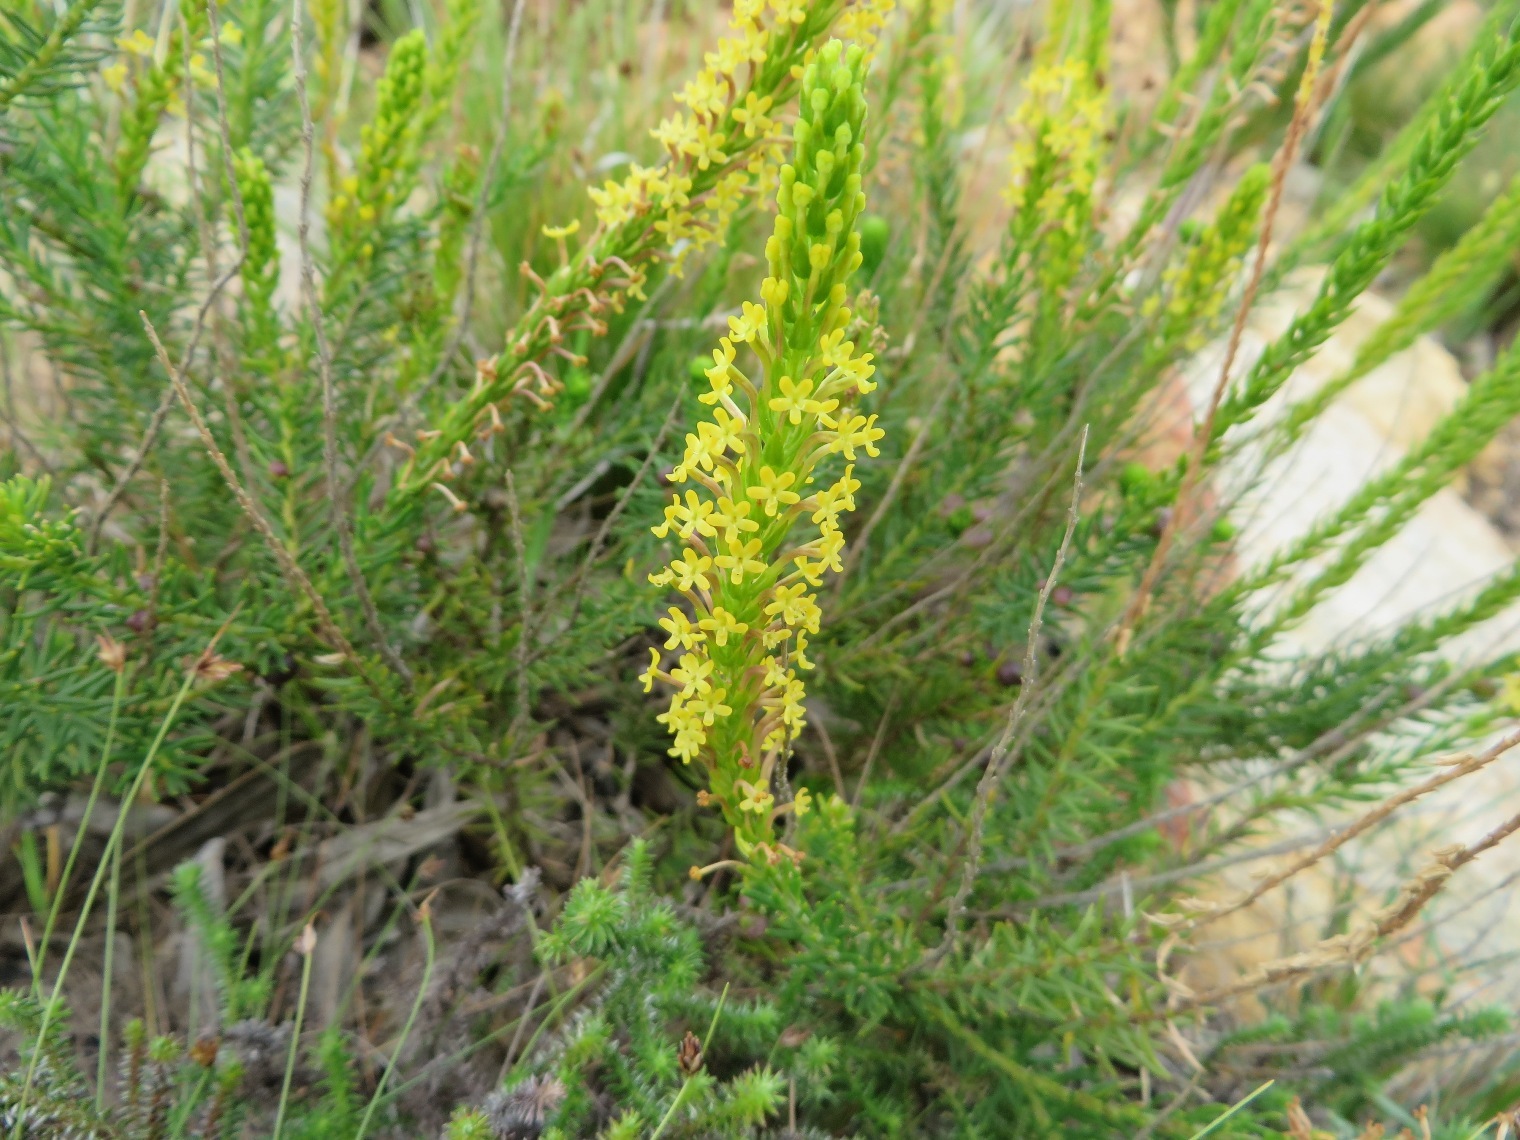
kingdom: Plantae
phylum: Tracheophyta
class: Magnoliopsida
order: Lamiales
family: Scrophulariaceae
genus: Microdon
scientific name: Microdon dubius
